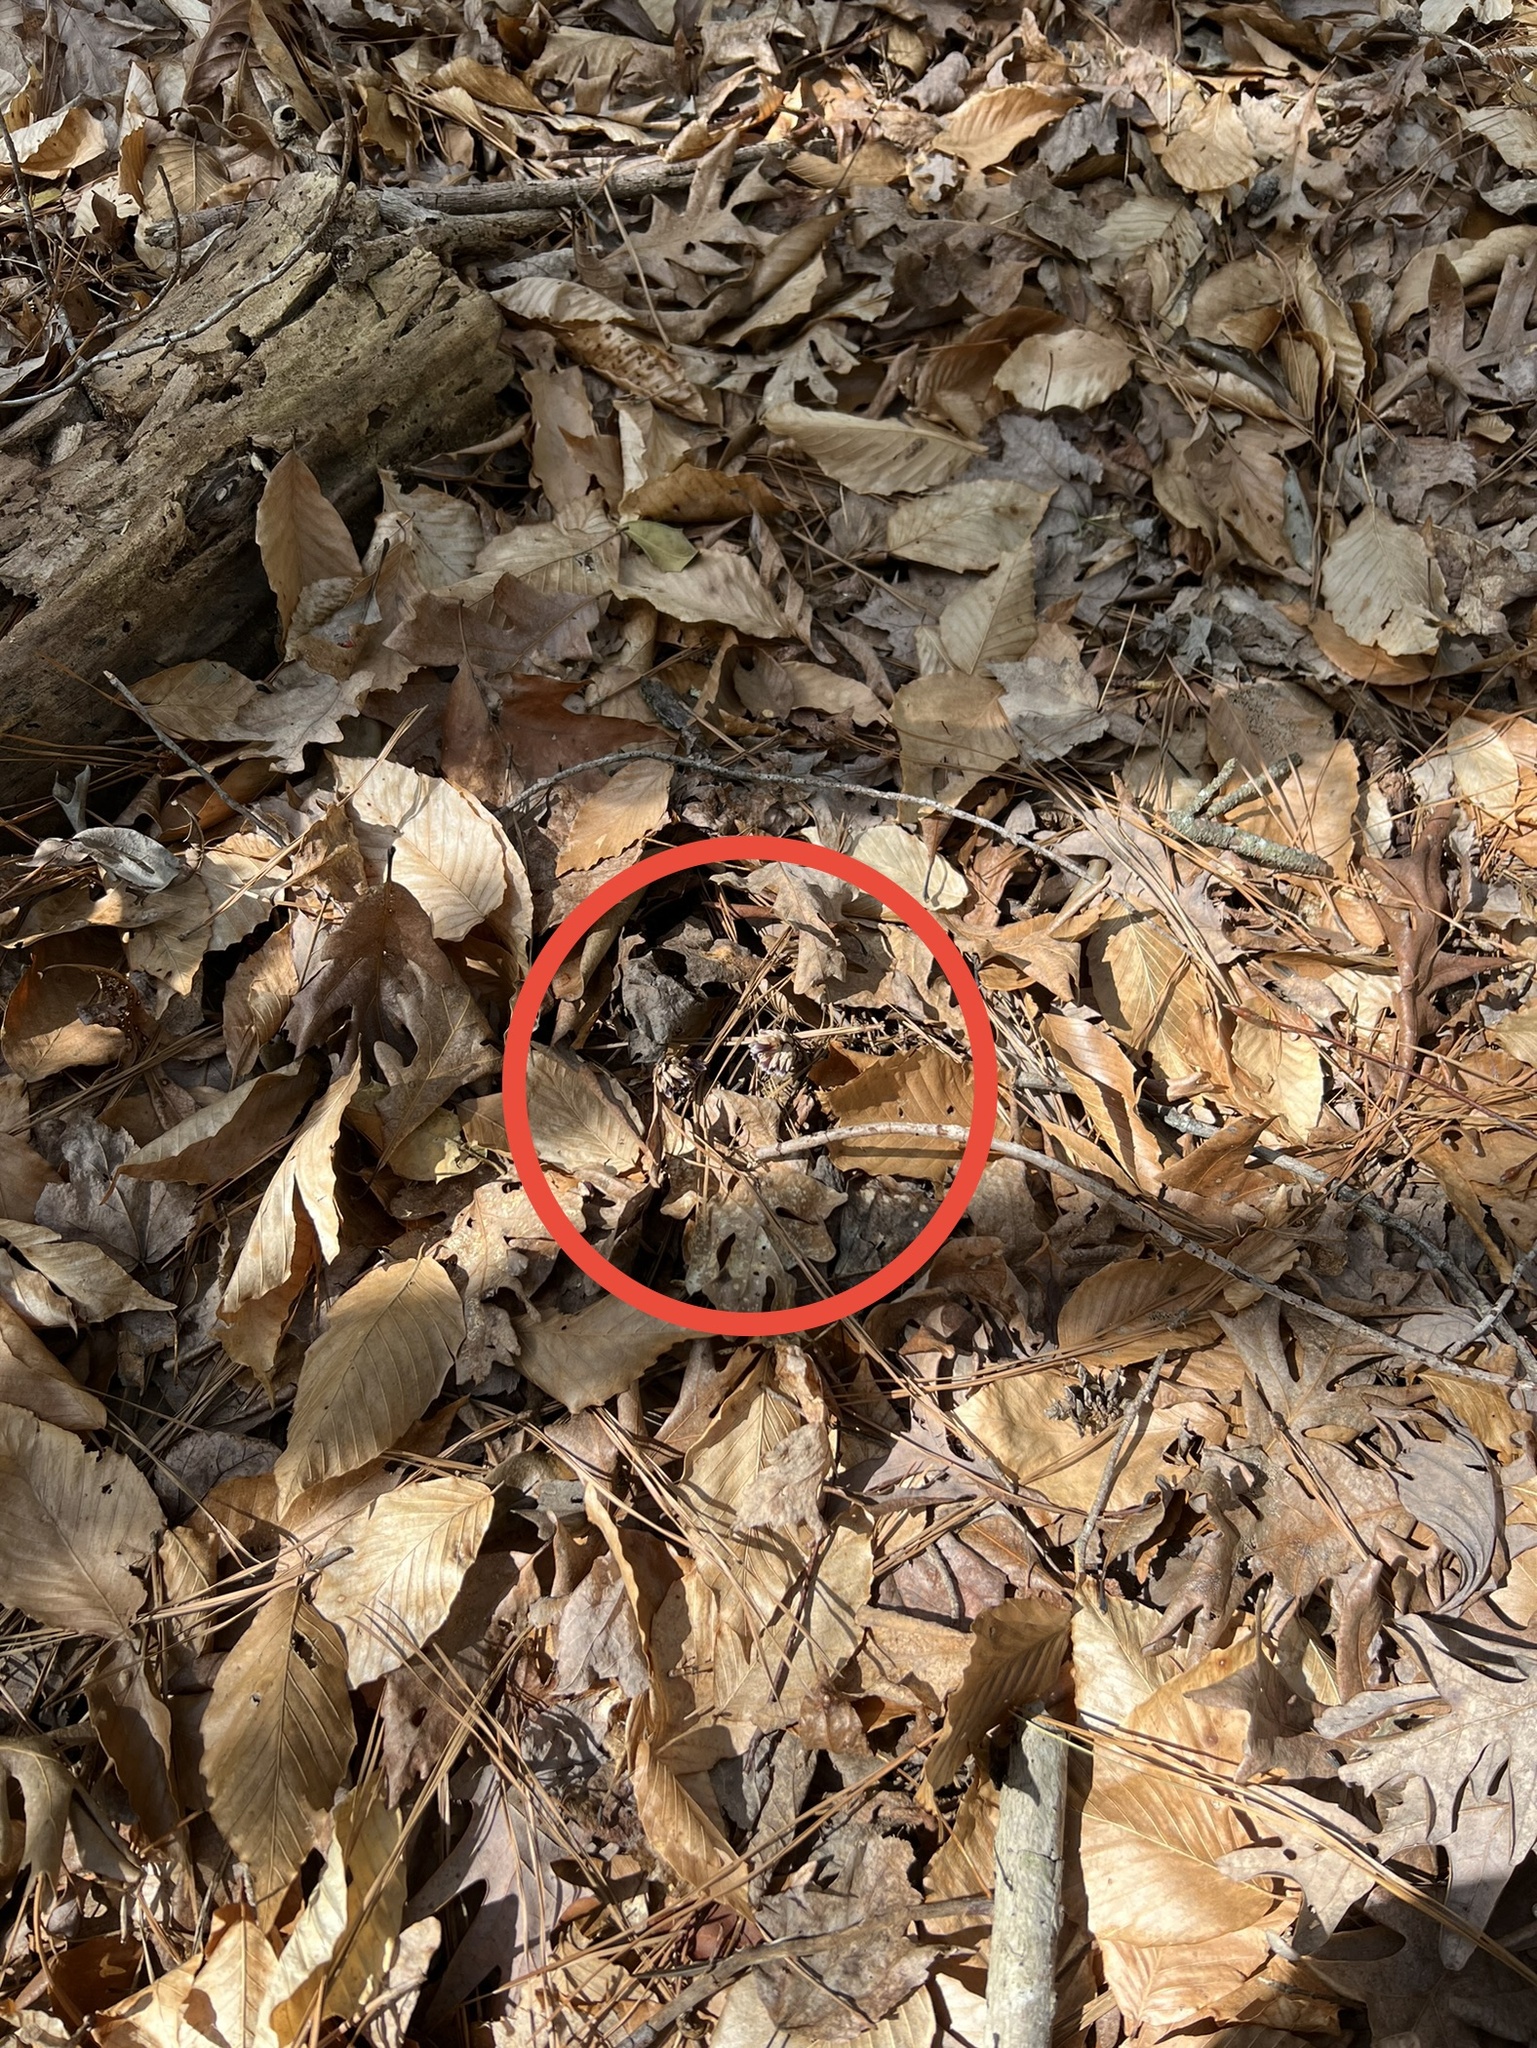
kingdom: Plantae
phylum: Tracheophyta
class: Magnoliopsida
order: Ericales
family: Ericaceae
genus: Monotropsis
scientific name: Monotropsis odorata
